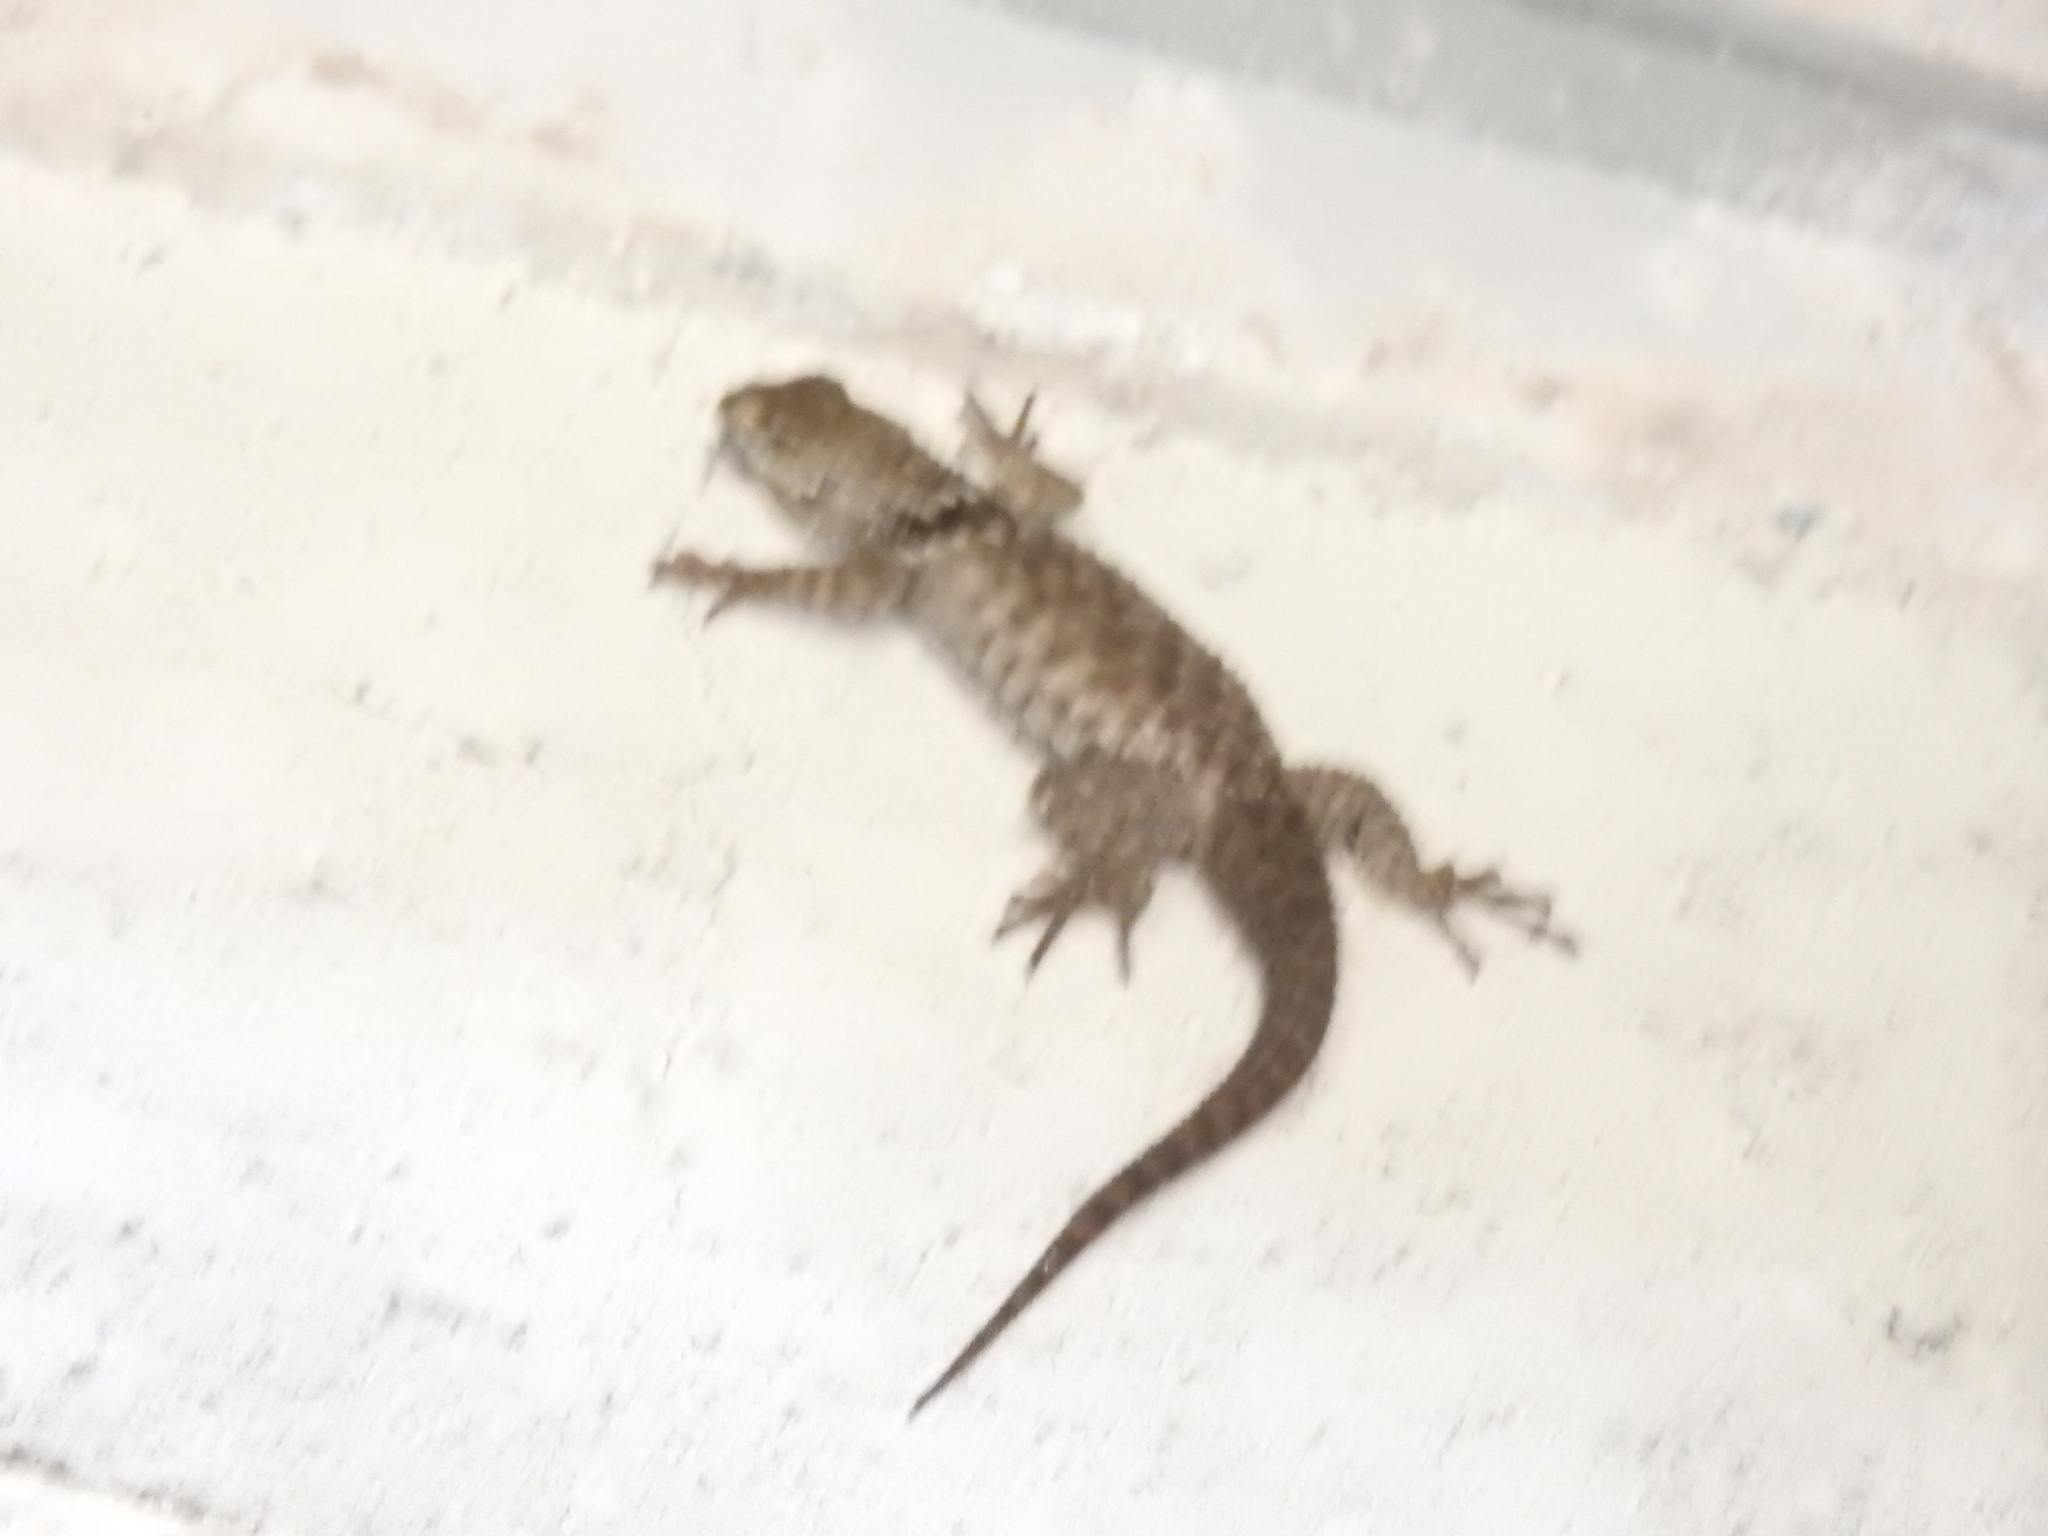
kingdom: Animalia
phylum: Chordata
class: Squamata
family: Phrynosomatidae
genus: Sceloporus
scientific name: Sceloporus torquatus
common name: Central plateau torquate lizard [melanogaster]
